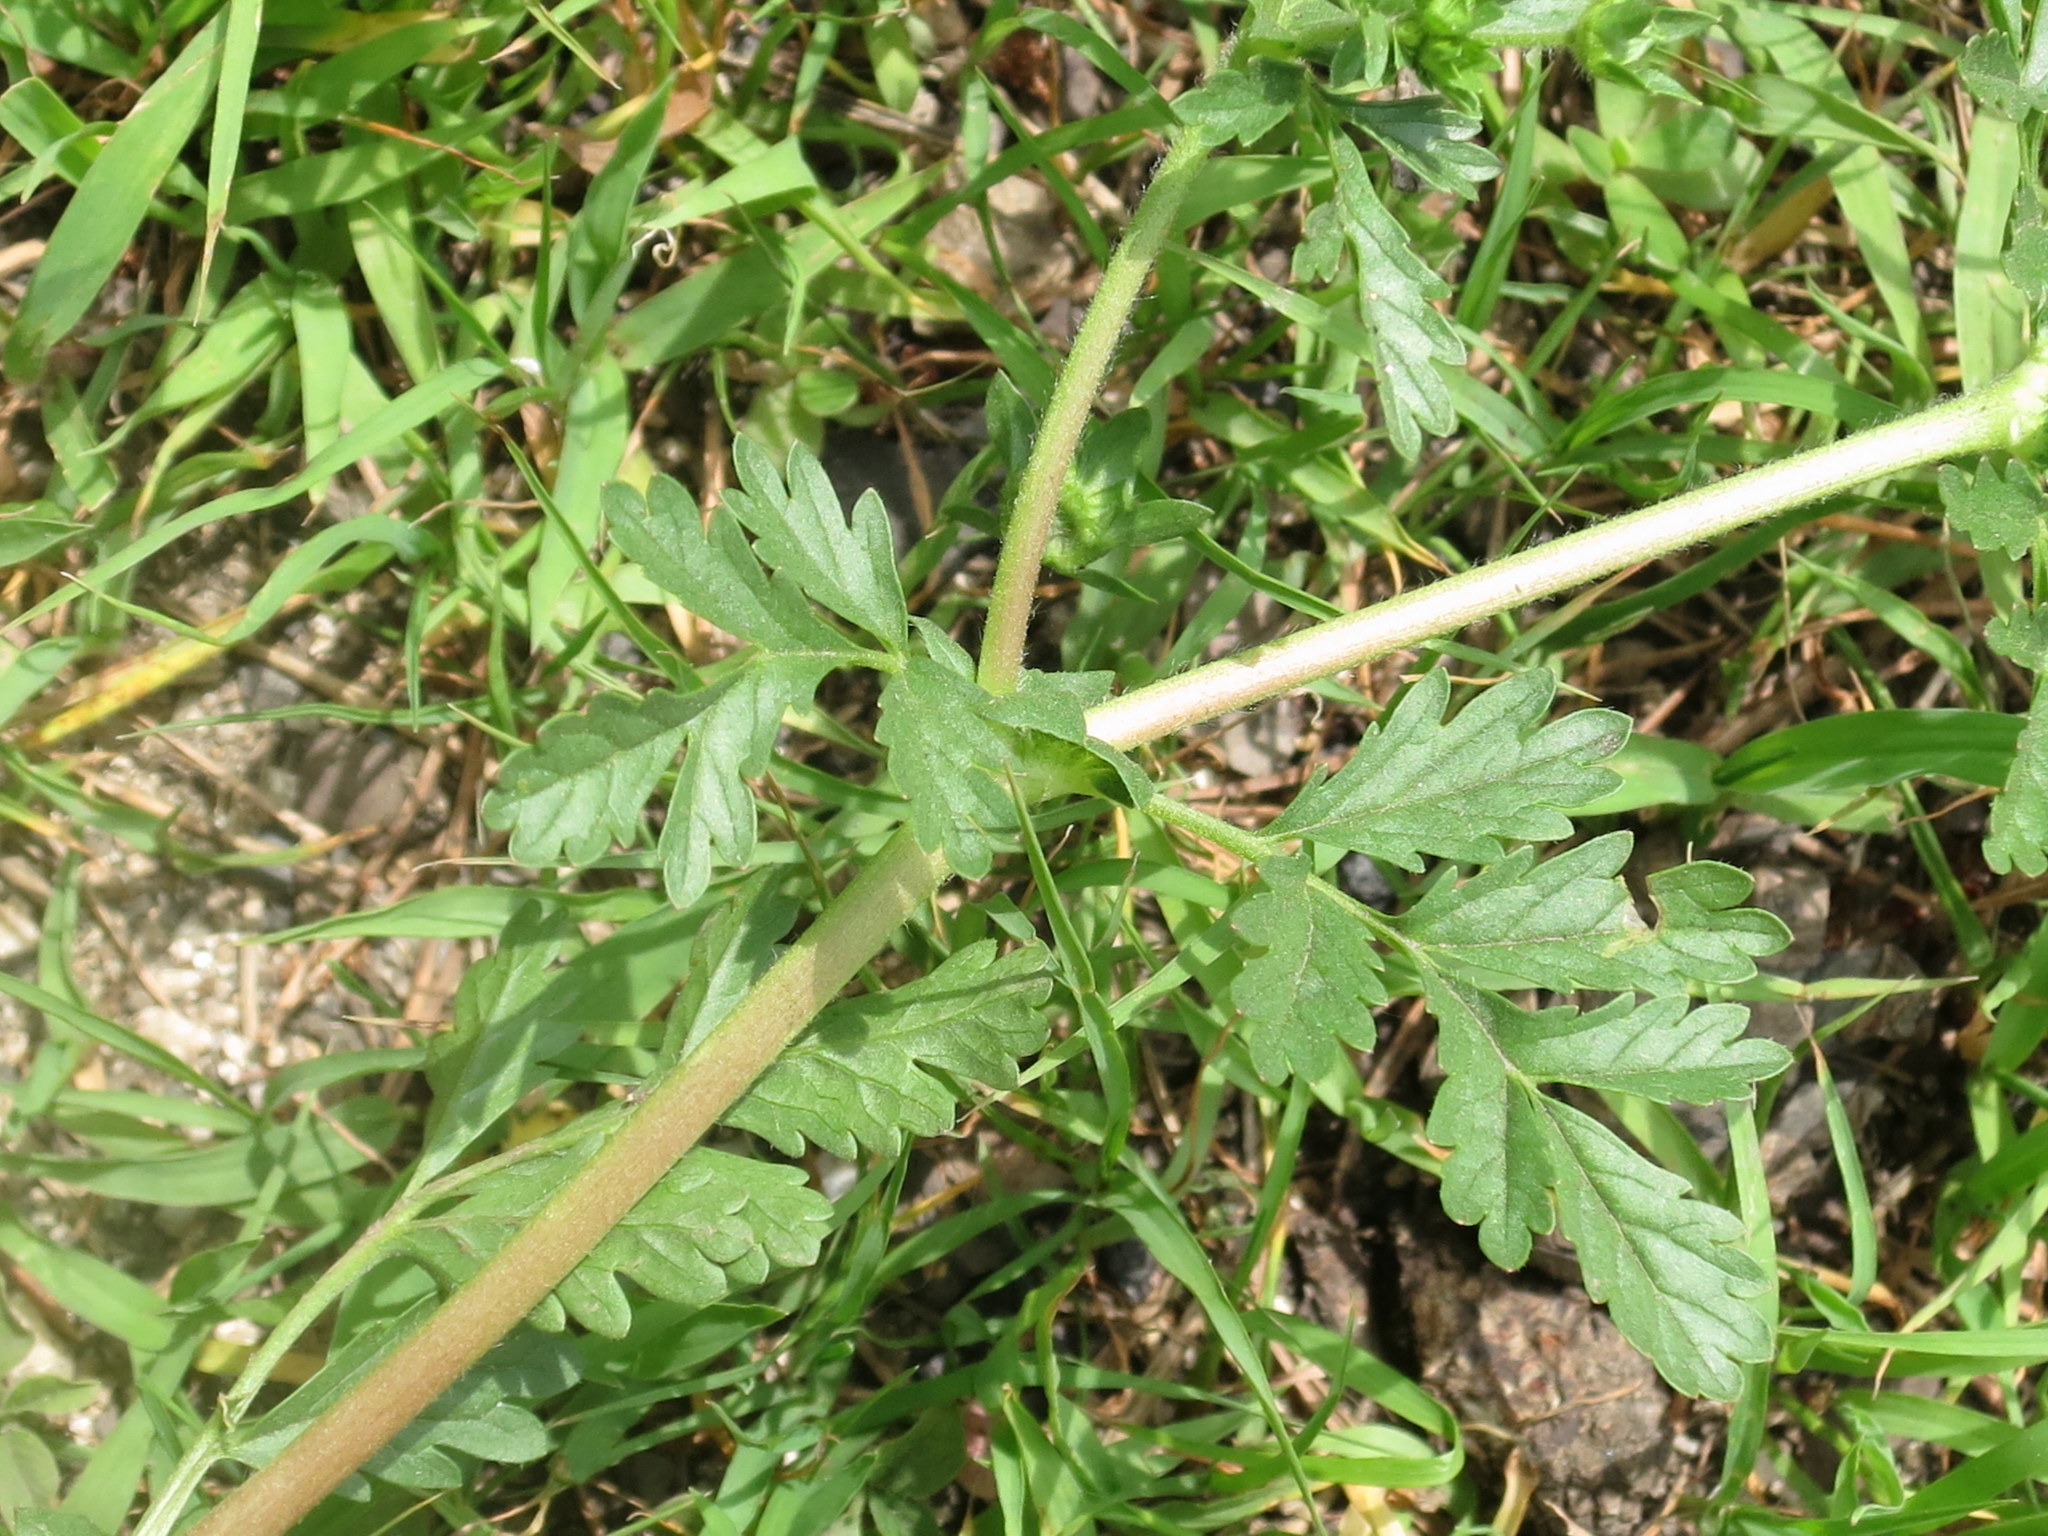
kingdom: Plantae
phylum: Tracheophyta
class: Magnoliopsida
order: Rosales
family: Rosaceae
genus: Potentilla
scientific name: Potentilla supina
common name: Prostrate cinquefoil
